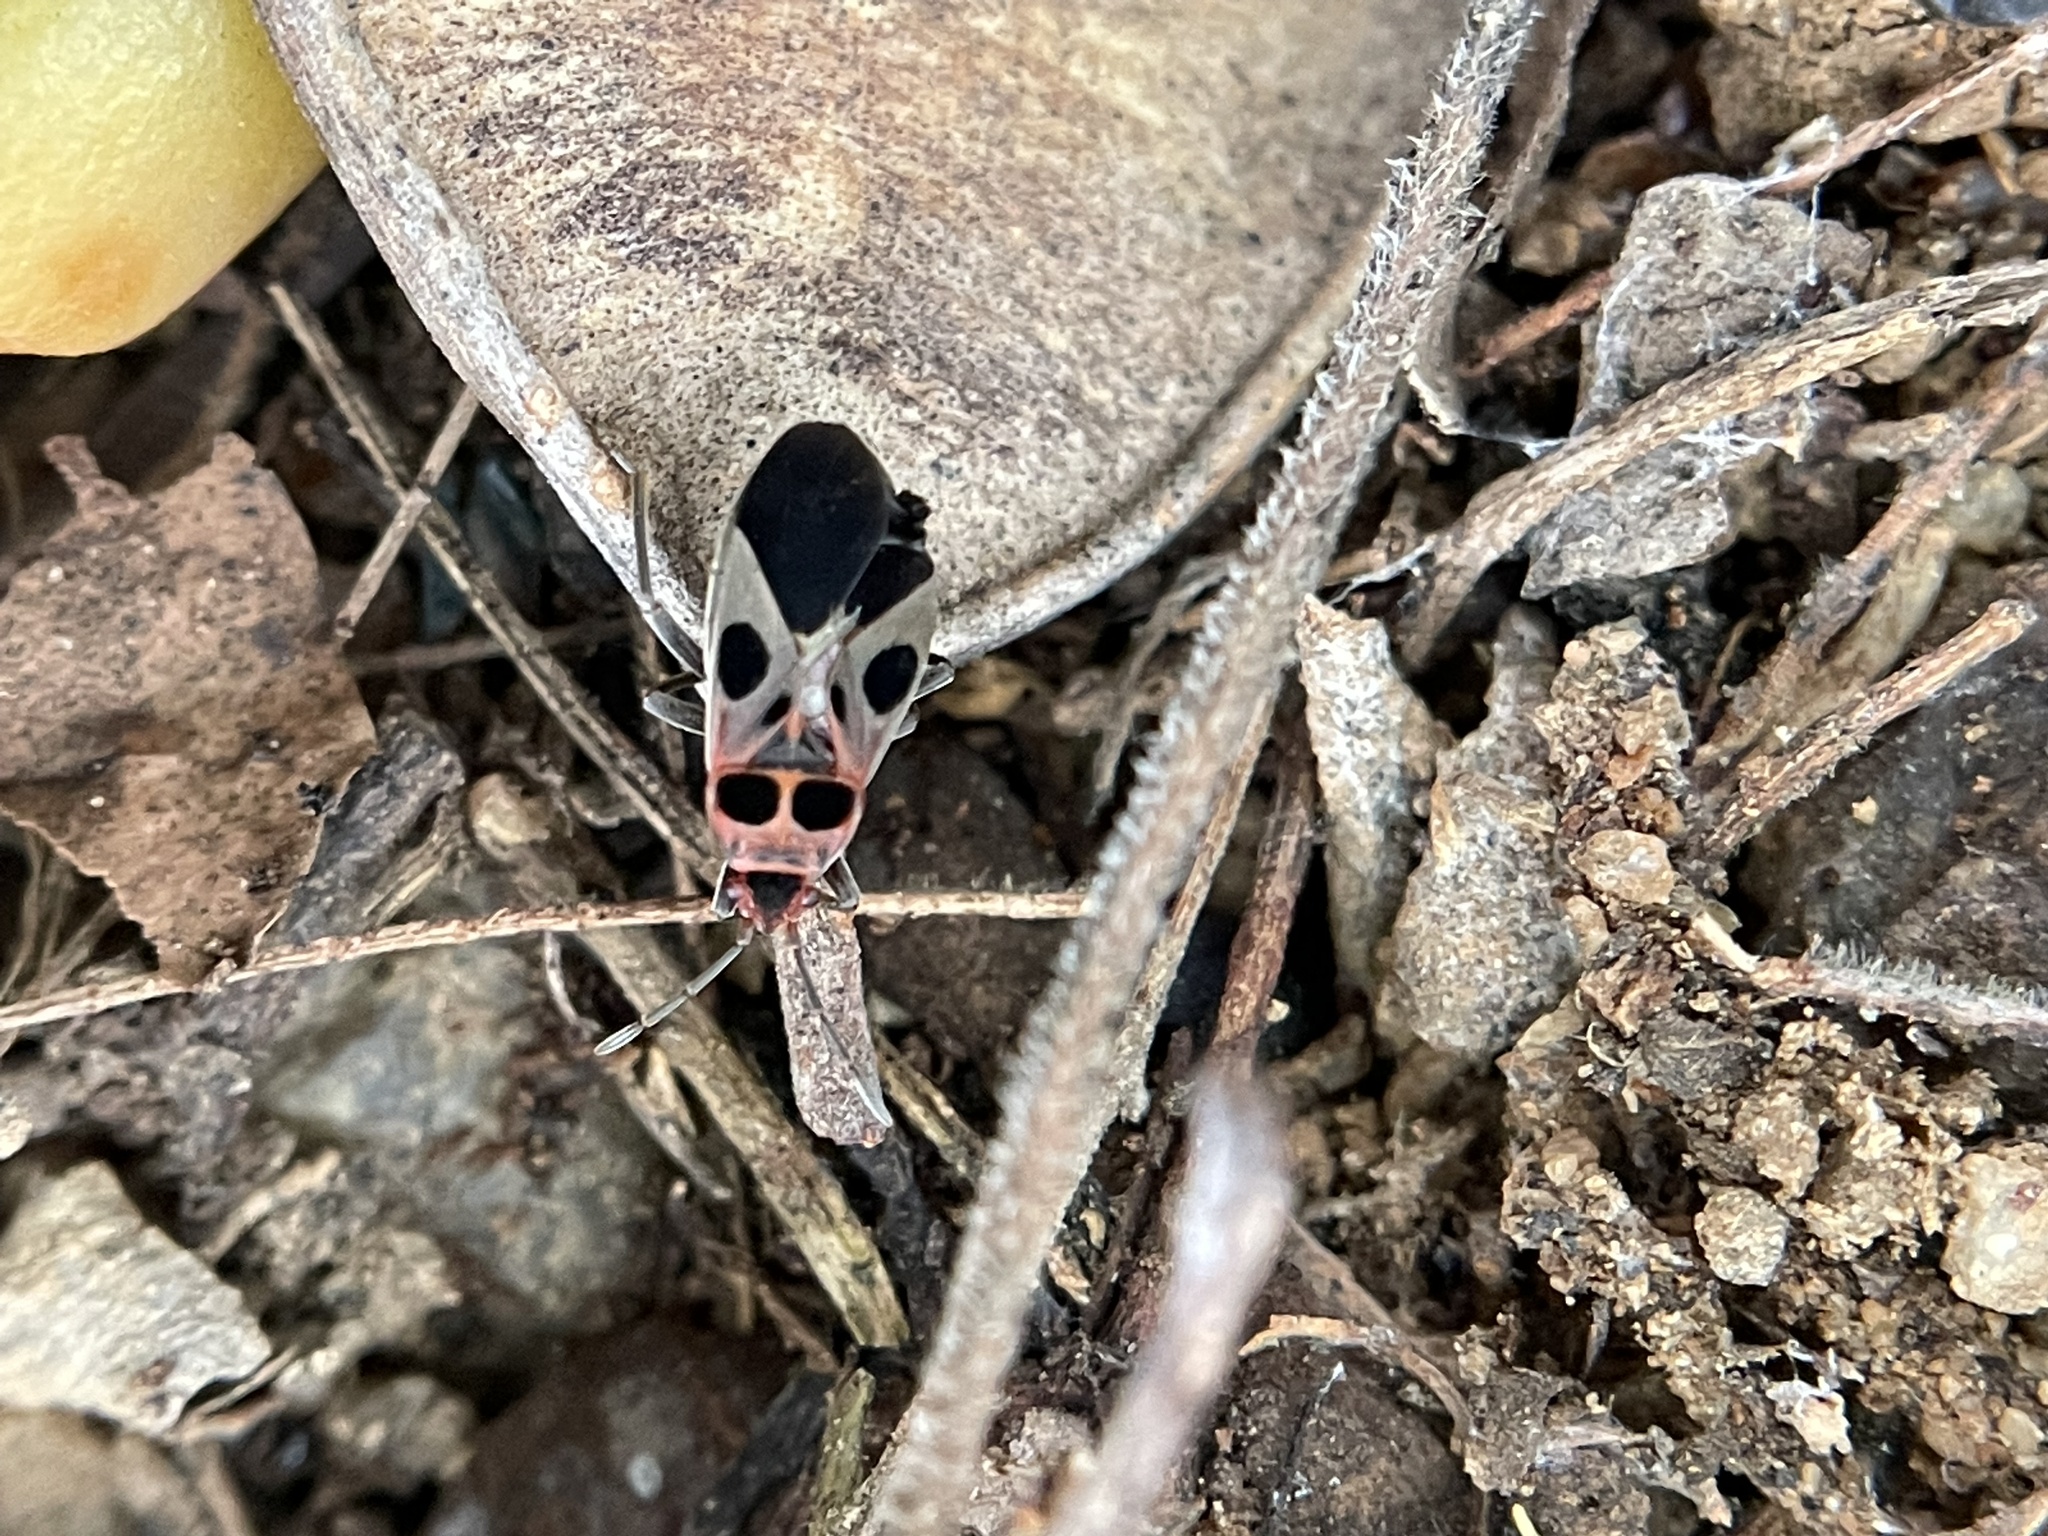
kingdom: Animalia
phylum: Arthropoda
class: Insecta
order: Hemiptera
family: Lygaeidae
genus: Tropidothorax
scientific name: Tropidothorax maculatus
